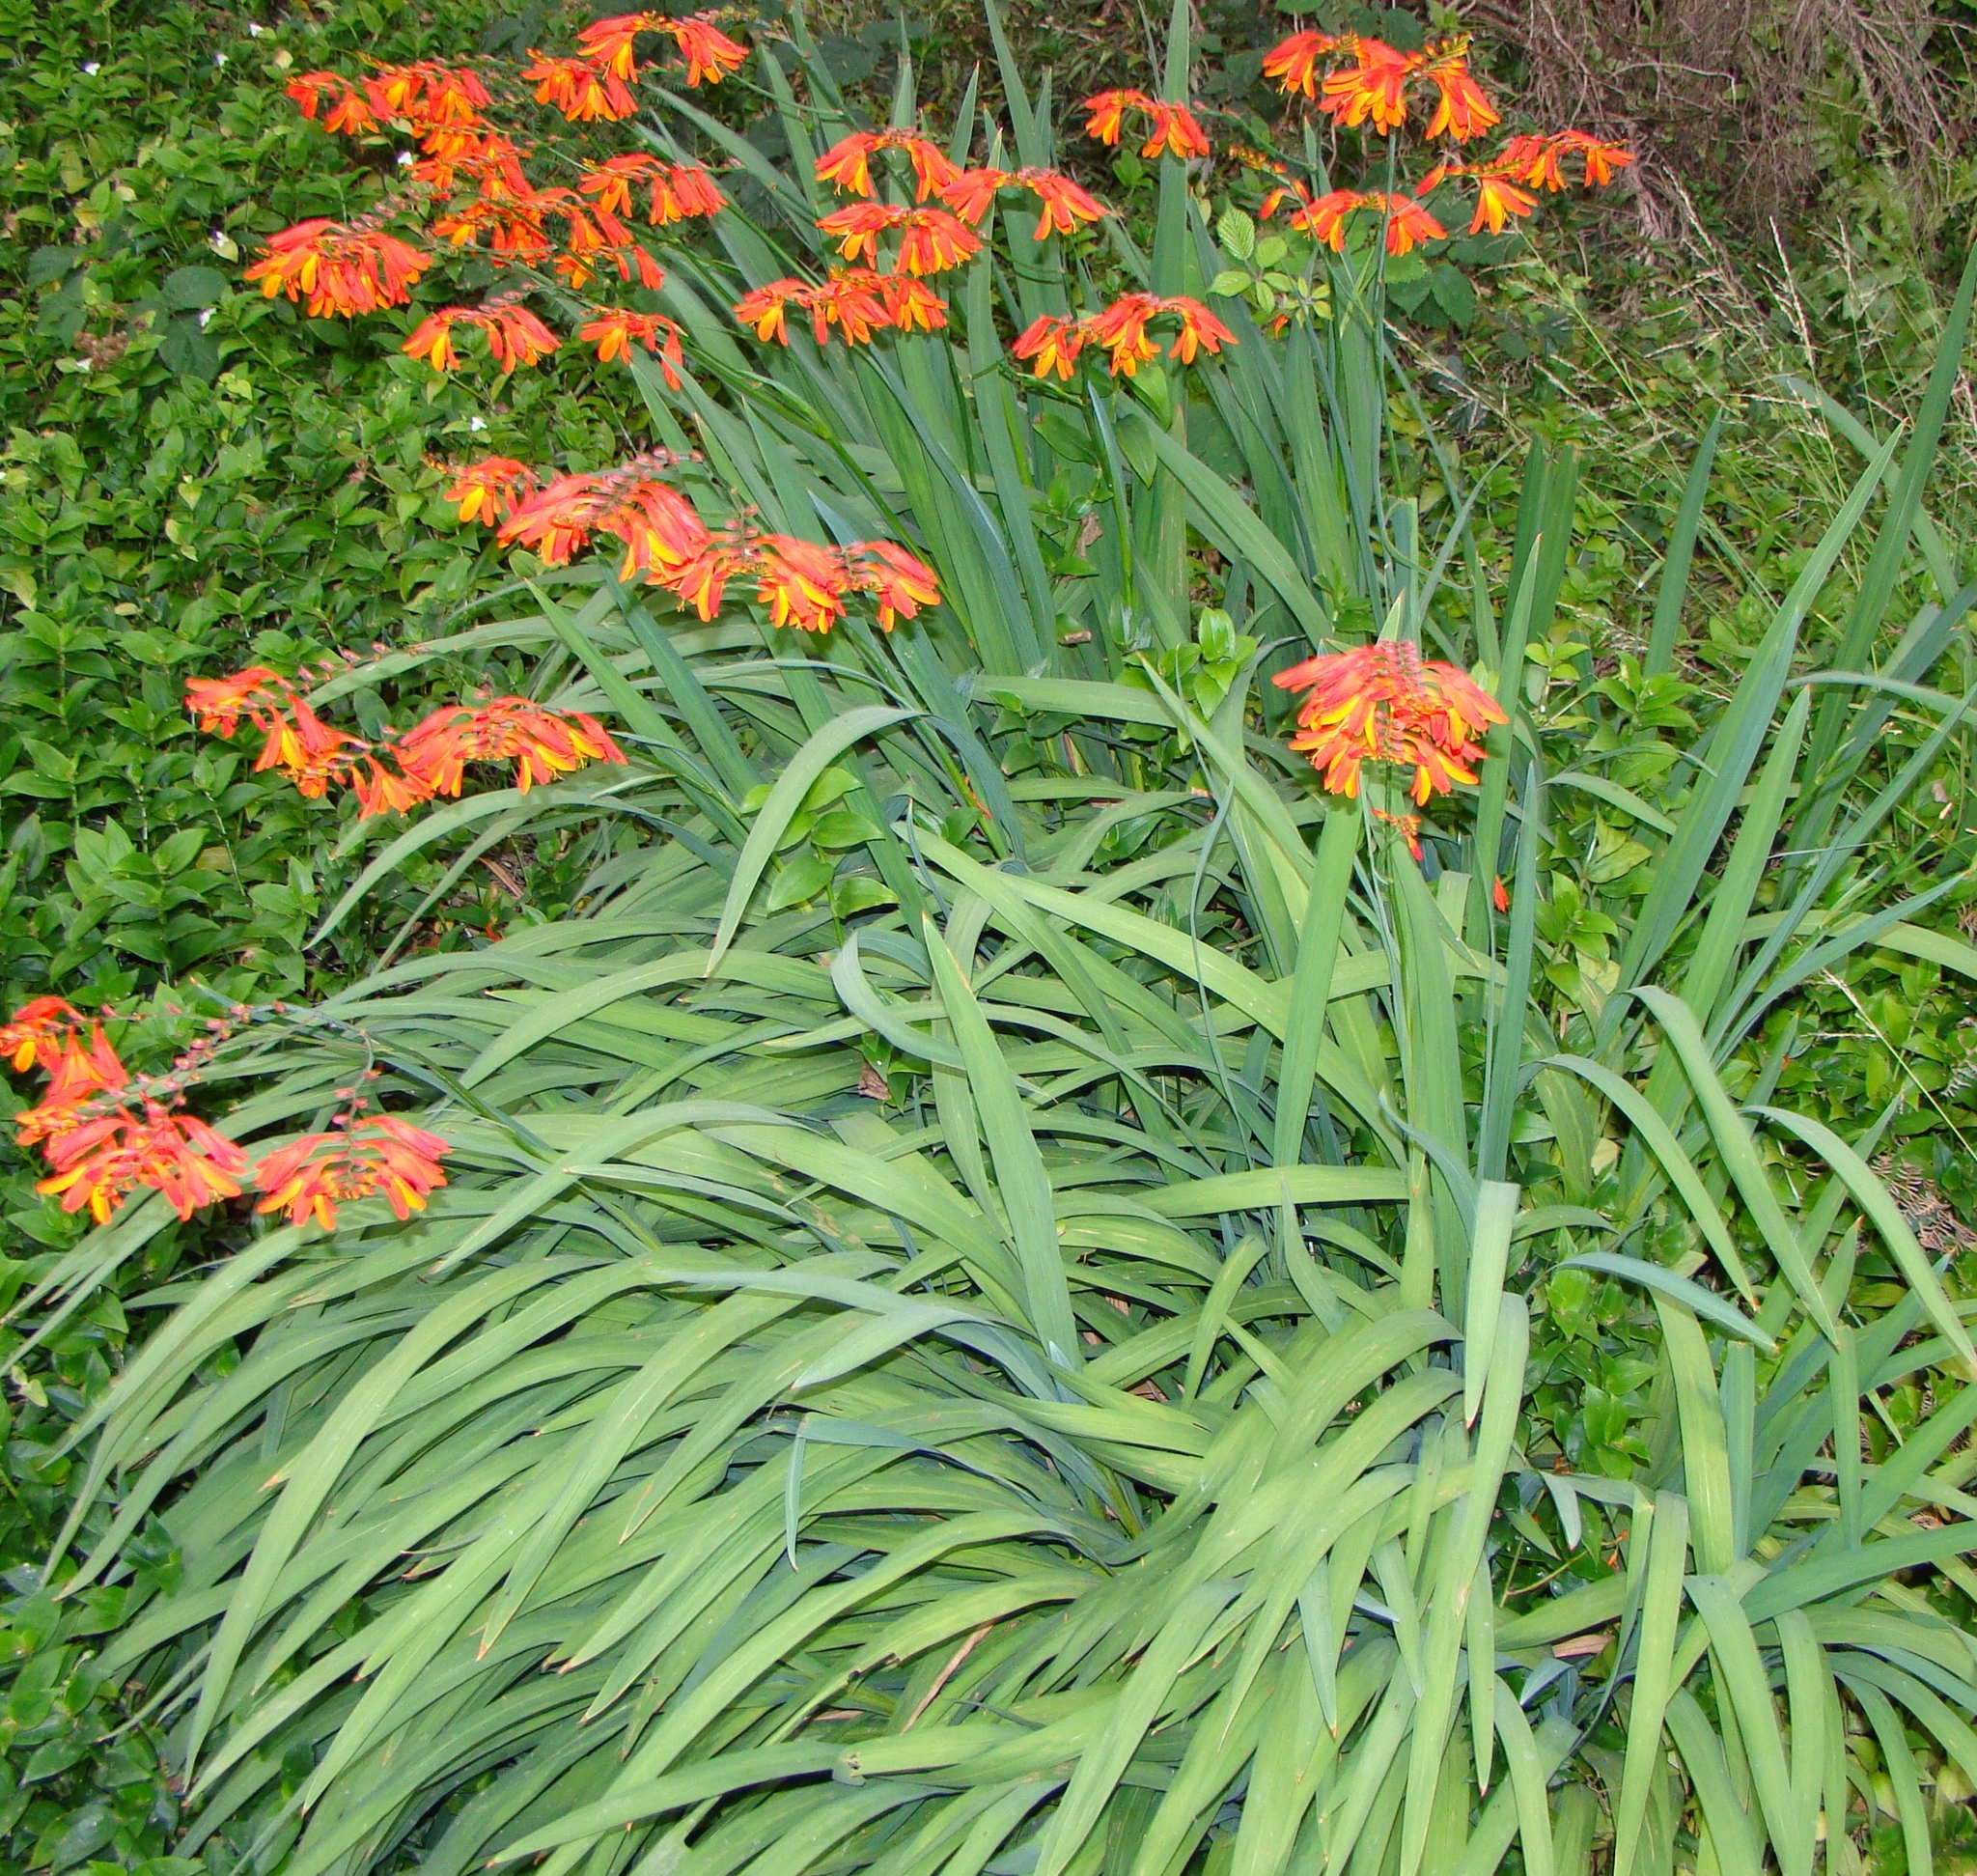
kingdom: Plantae
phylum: Tracheophyta
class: Liliopsida
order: Asparagales
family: Iridaceae
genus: Crocosmia
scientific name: Crocosmia crocosmiiflora
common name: Montbretia
